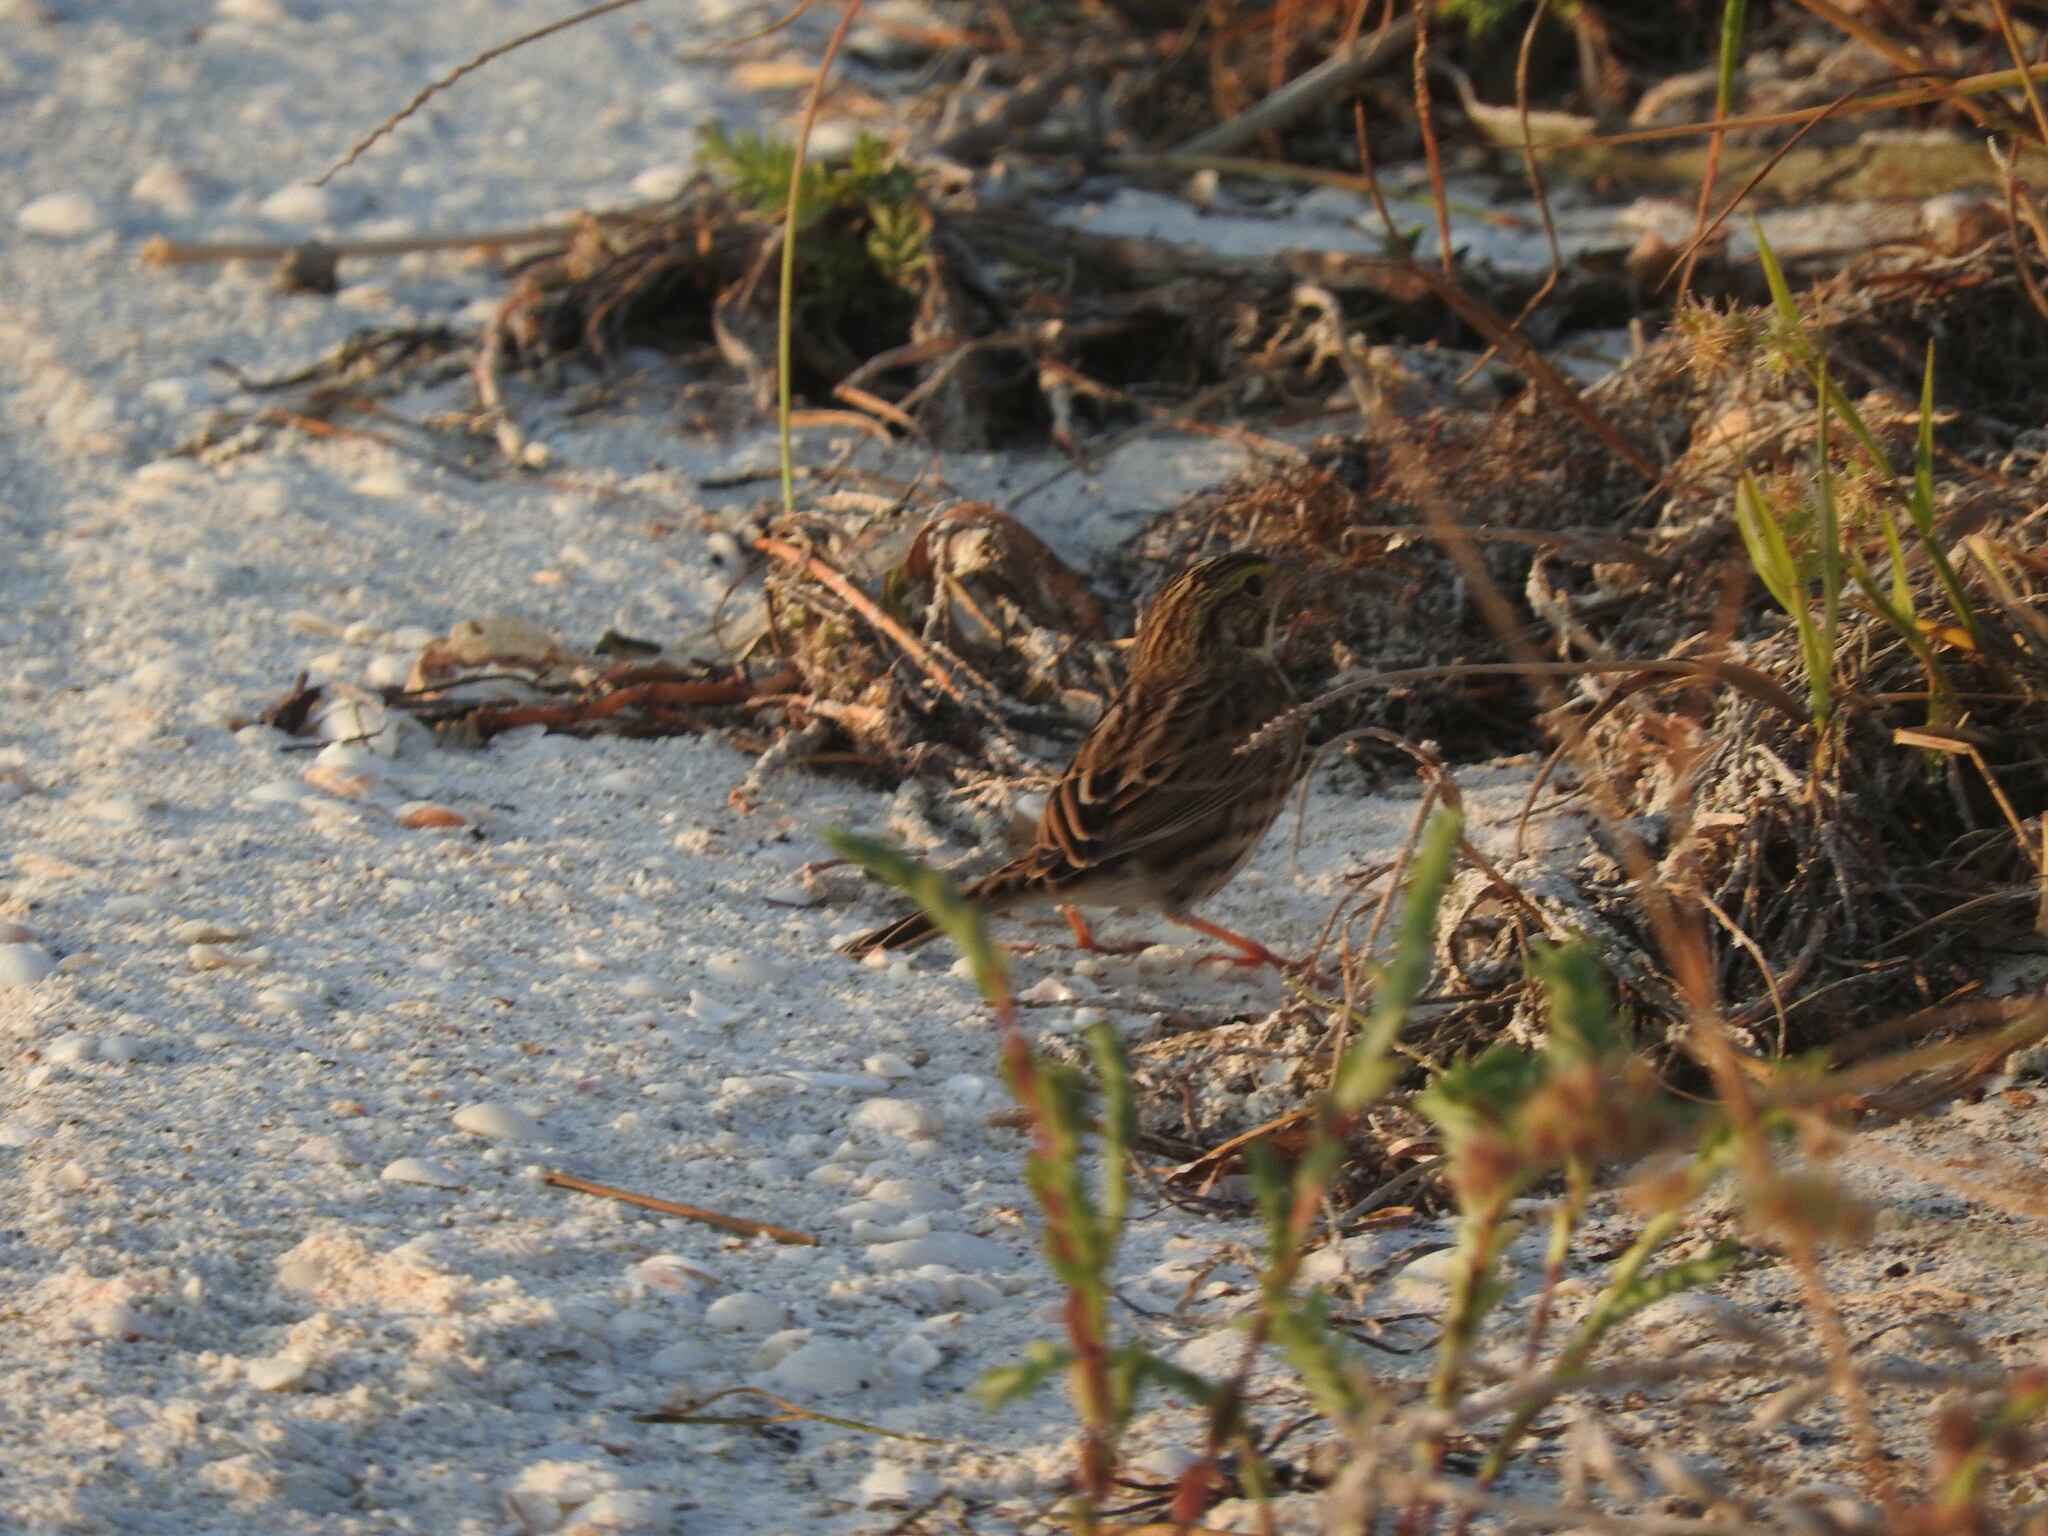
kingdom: Animalia
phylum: Chordata
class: Aves
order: Passeriformes
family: Passerellidae
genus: Passerculus
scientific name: Passerculus sandwichensis
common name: Savannah sparrow
